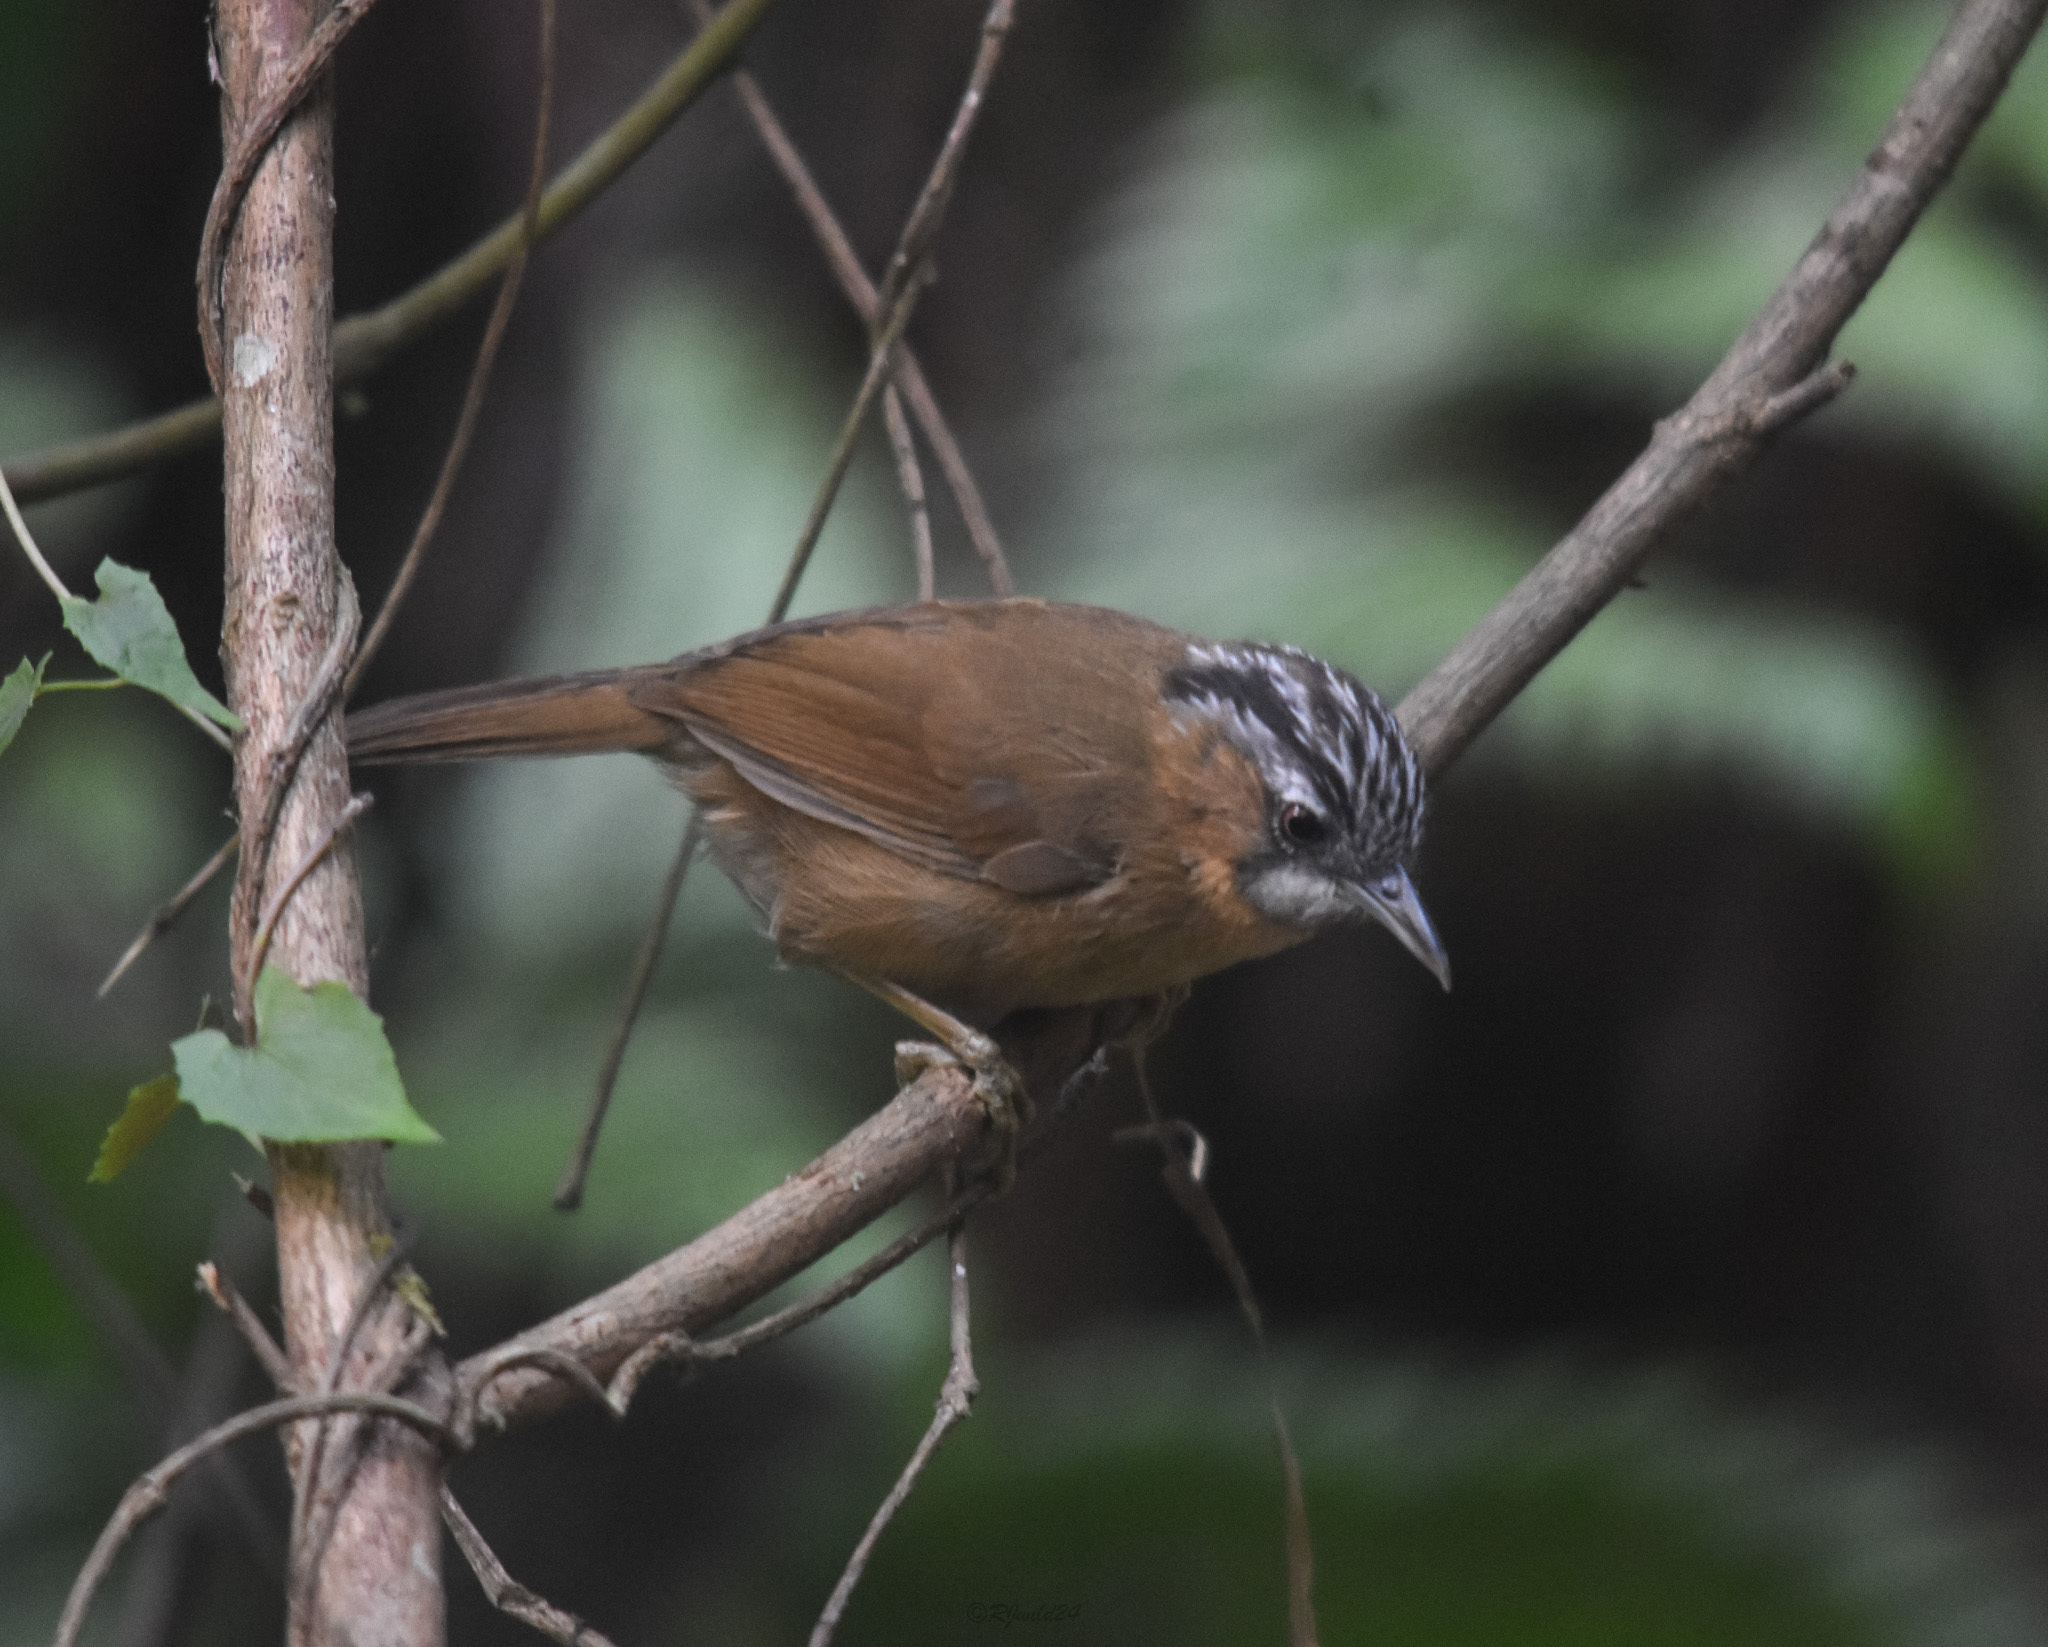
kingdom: Animalia
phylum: Chordata
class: Aves
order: Passeriformes
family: Timaliidae
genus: Stachyris
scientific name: Stachyris nigriceps
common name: Grey-throated babbler
